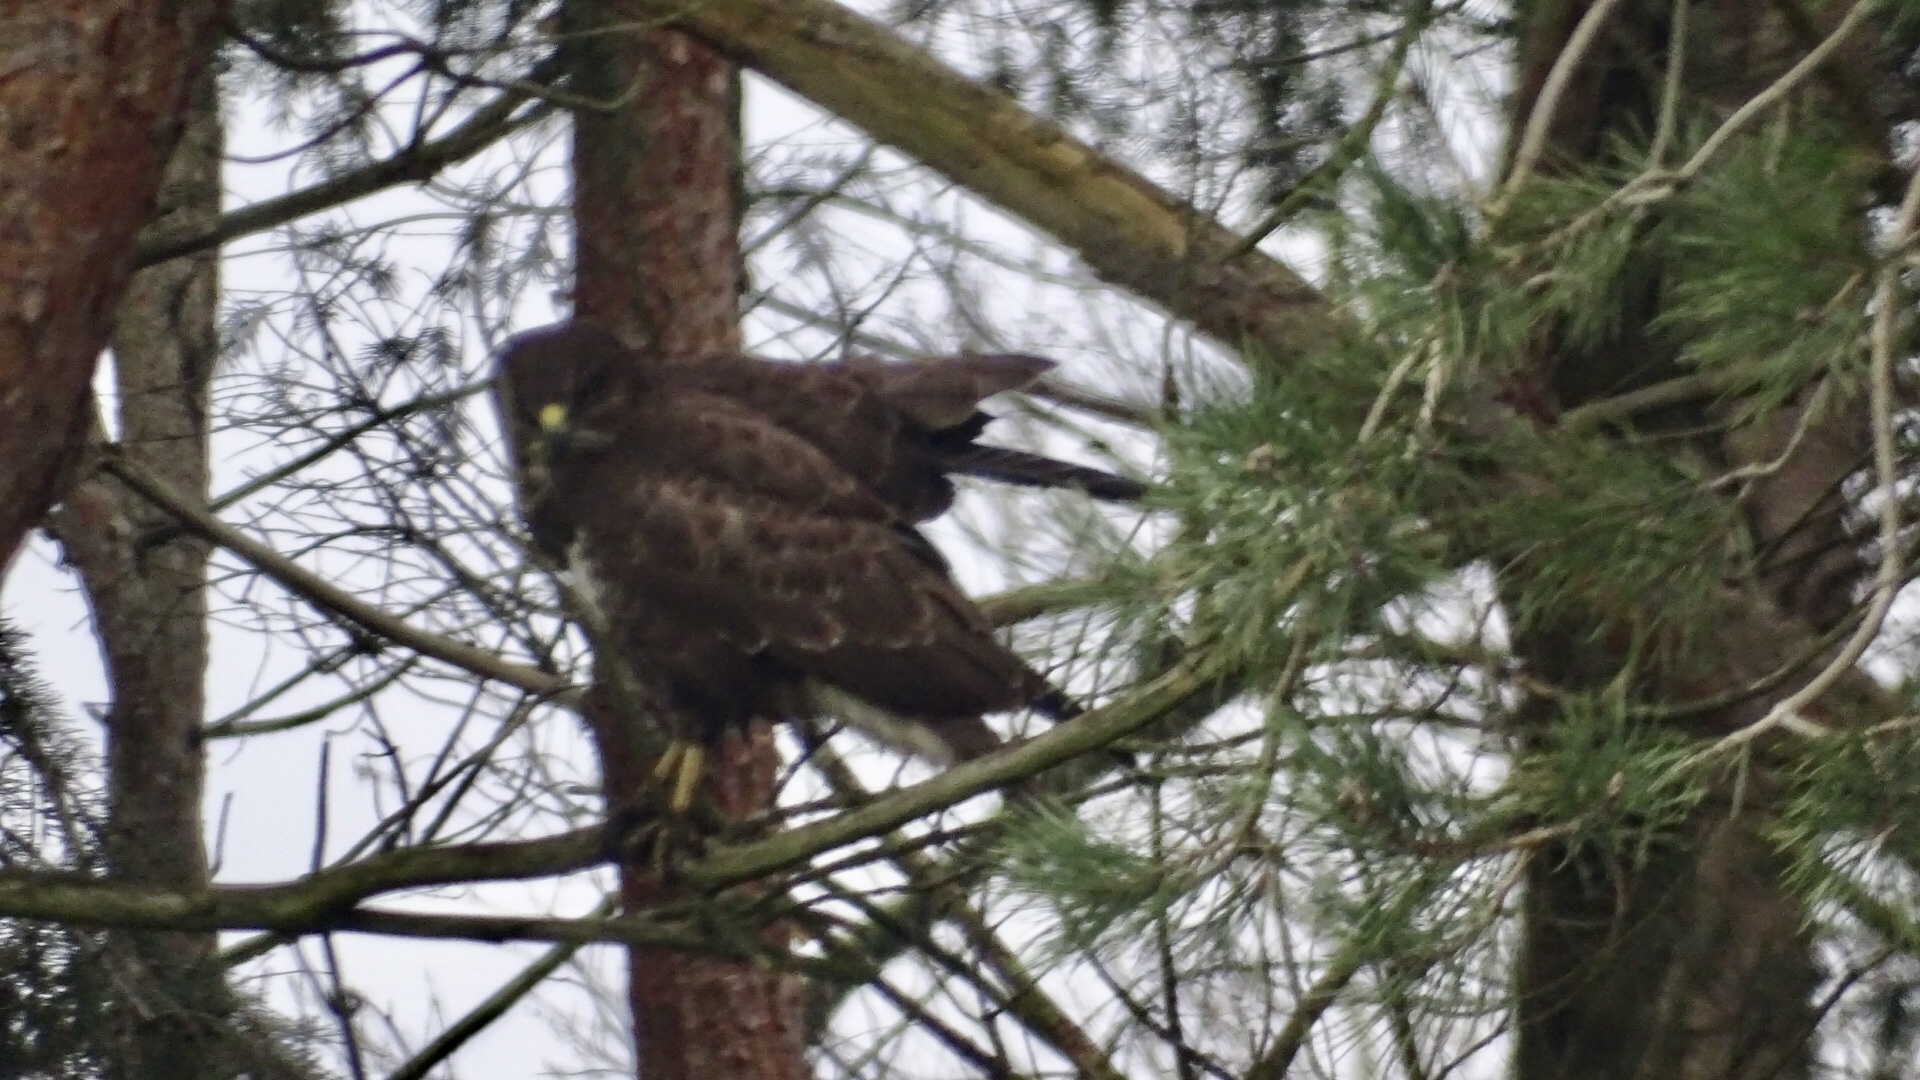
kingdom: Animalia
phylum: Chordata
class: Aves
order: Accipitriformes
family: Accipitridae
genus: Buteo
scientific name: Buteo buteo
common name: Common buzzard
